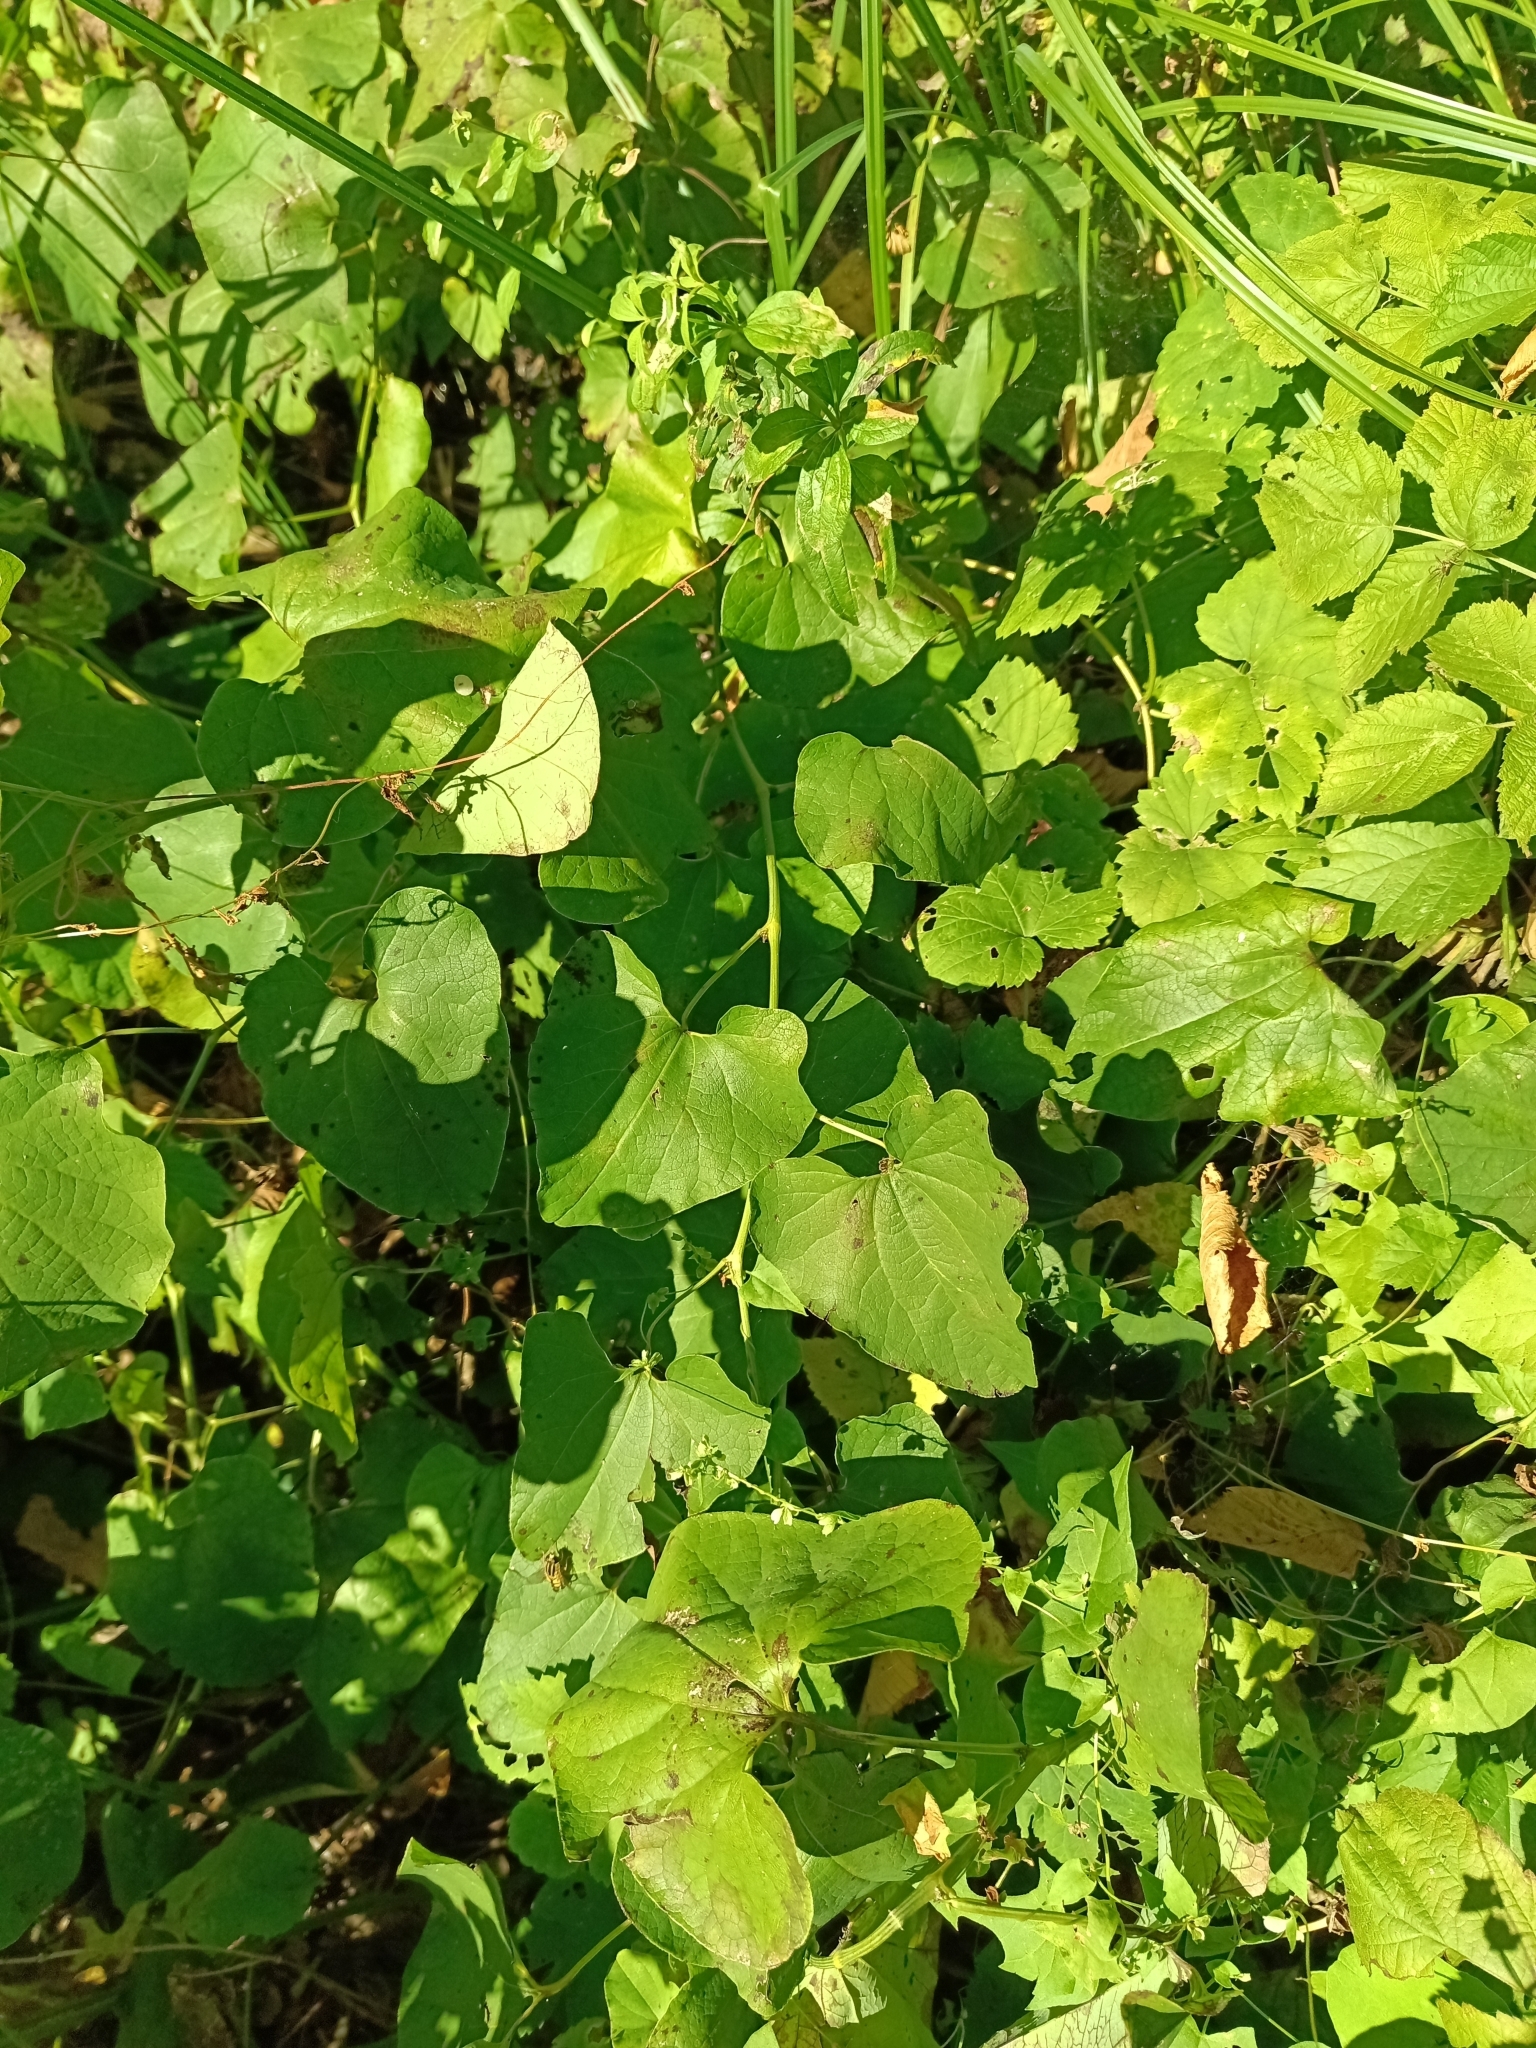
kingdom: Plantae
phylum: Tracheophyta
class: Magnoliopsida
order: Piperales
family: Aristolochiaceae
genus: Aristolochia
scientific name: Aristolochia clematitis
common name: Birthwort
